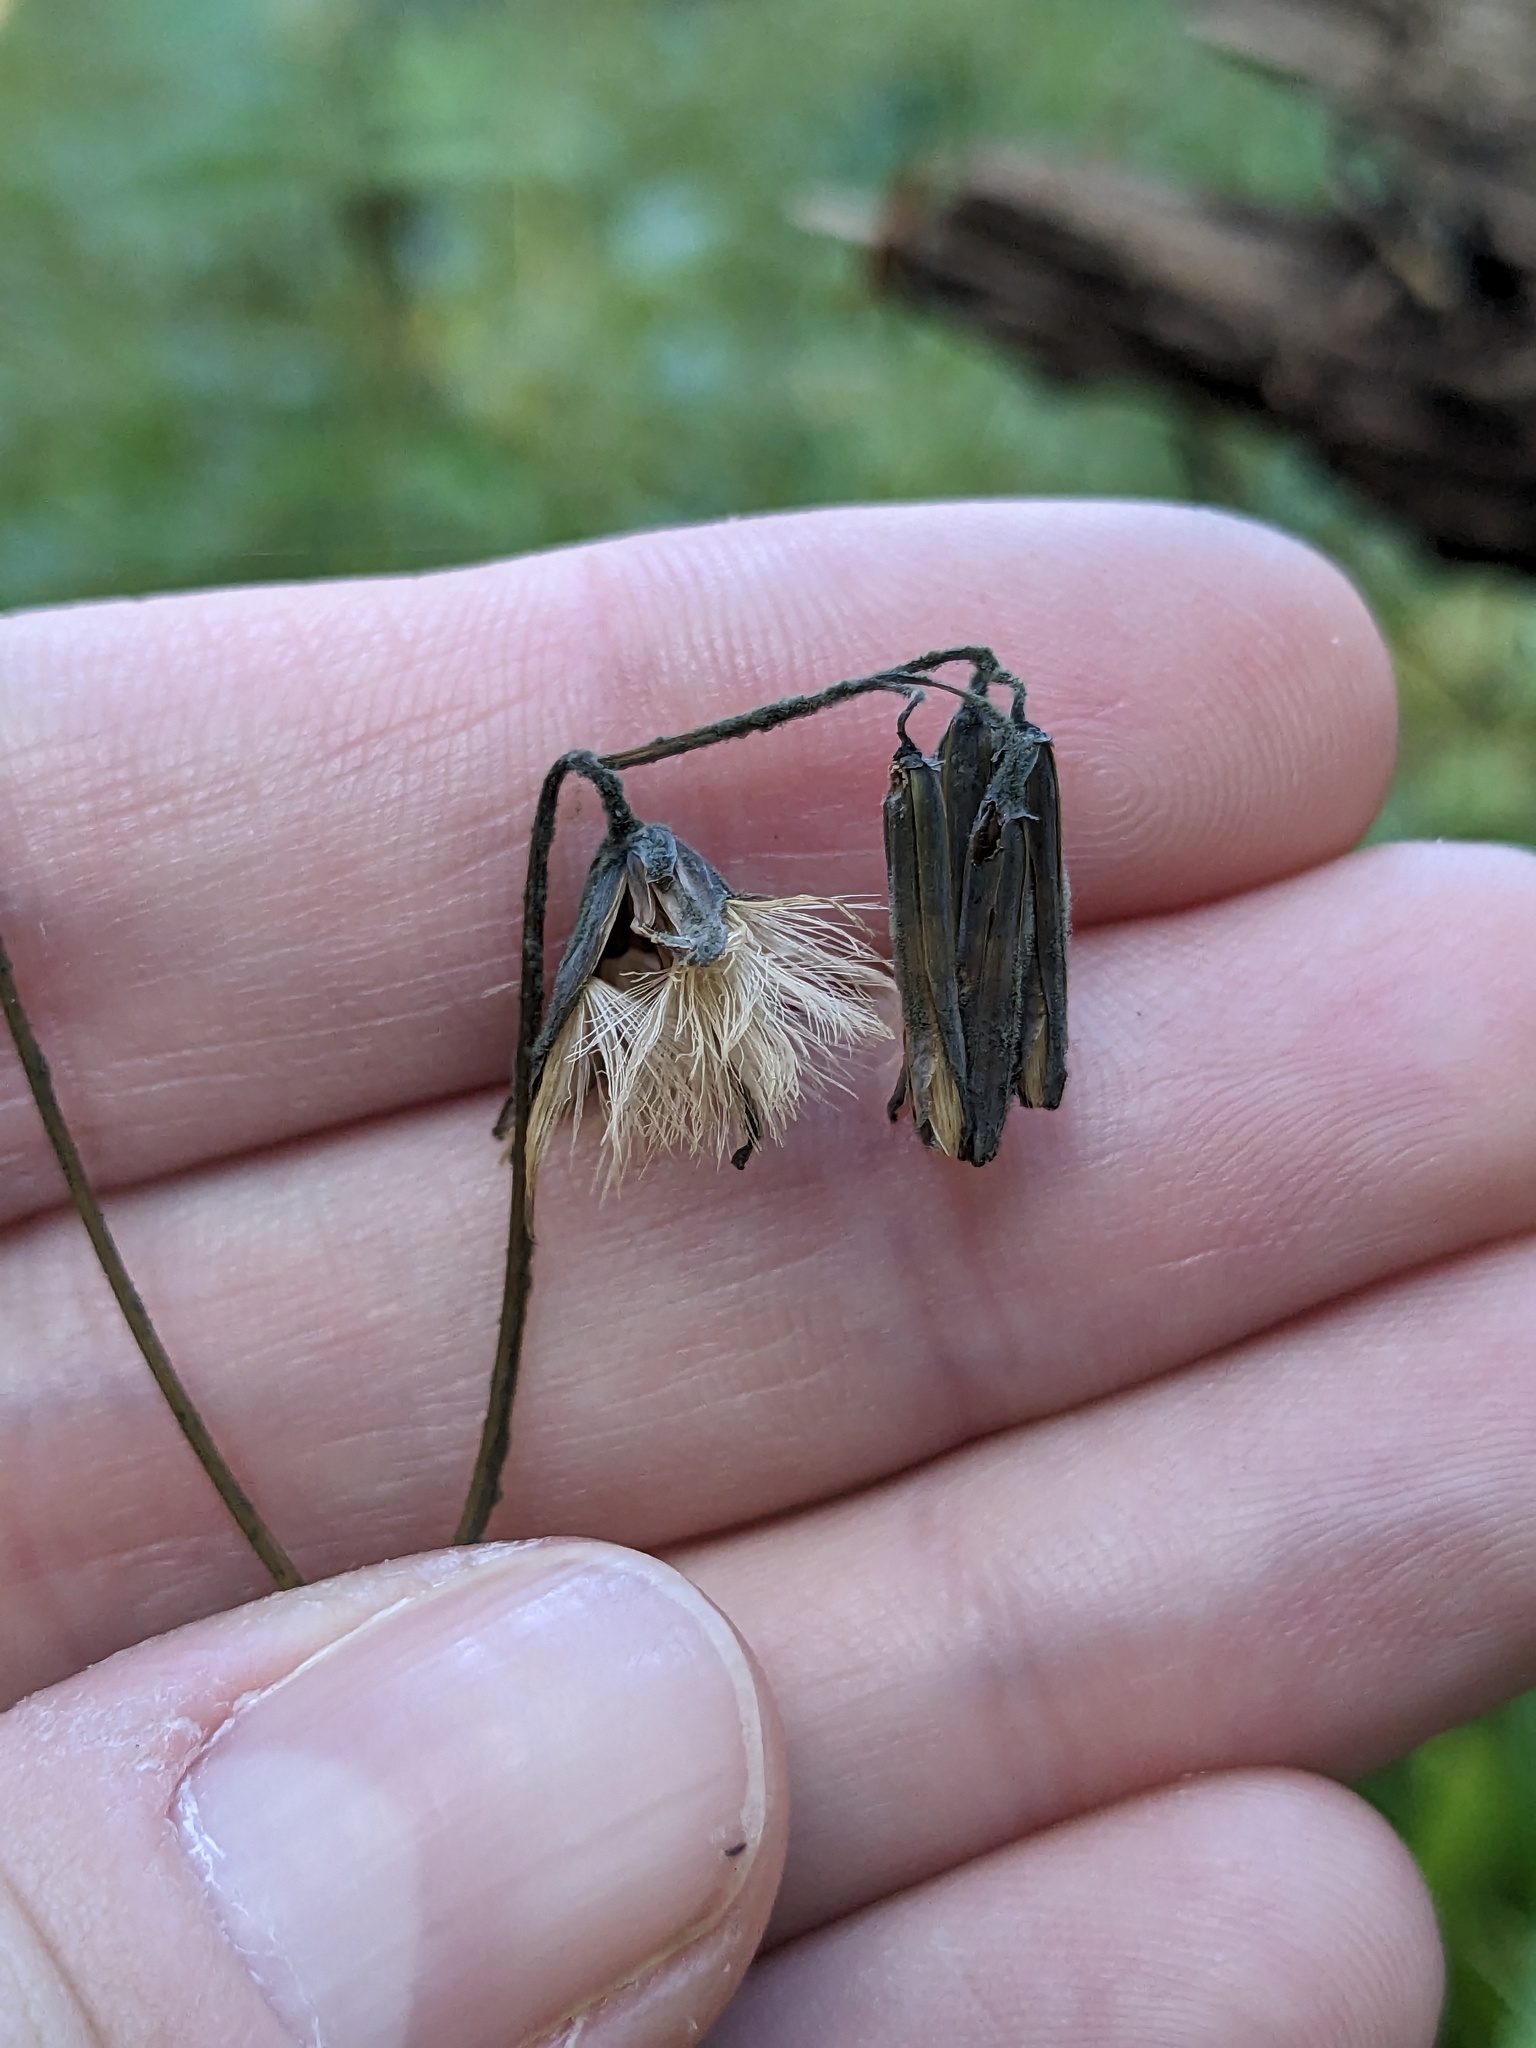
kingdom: Plantae
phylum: Tracheophyta
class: Magnoliopsida
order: Asterales
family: Asteraceae
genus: Nabalus
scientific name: Nabalus altissima
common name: Tall rattlesnakeroot
